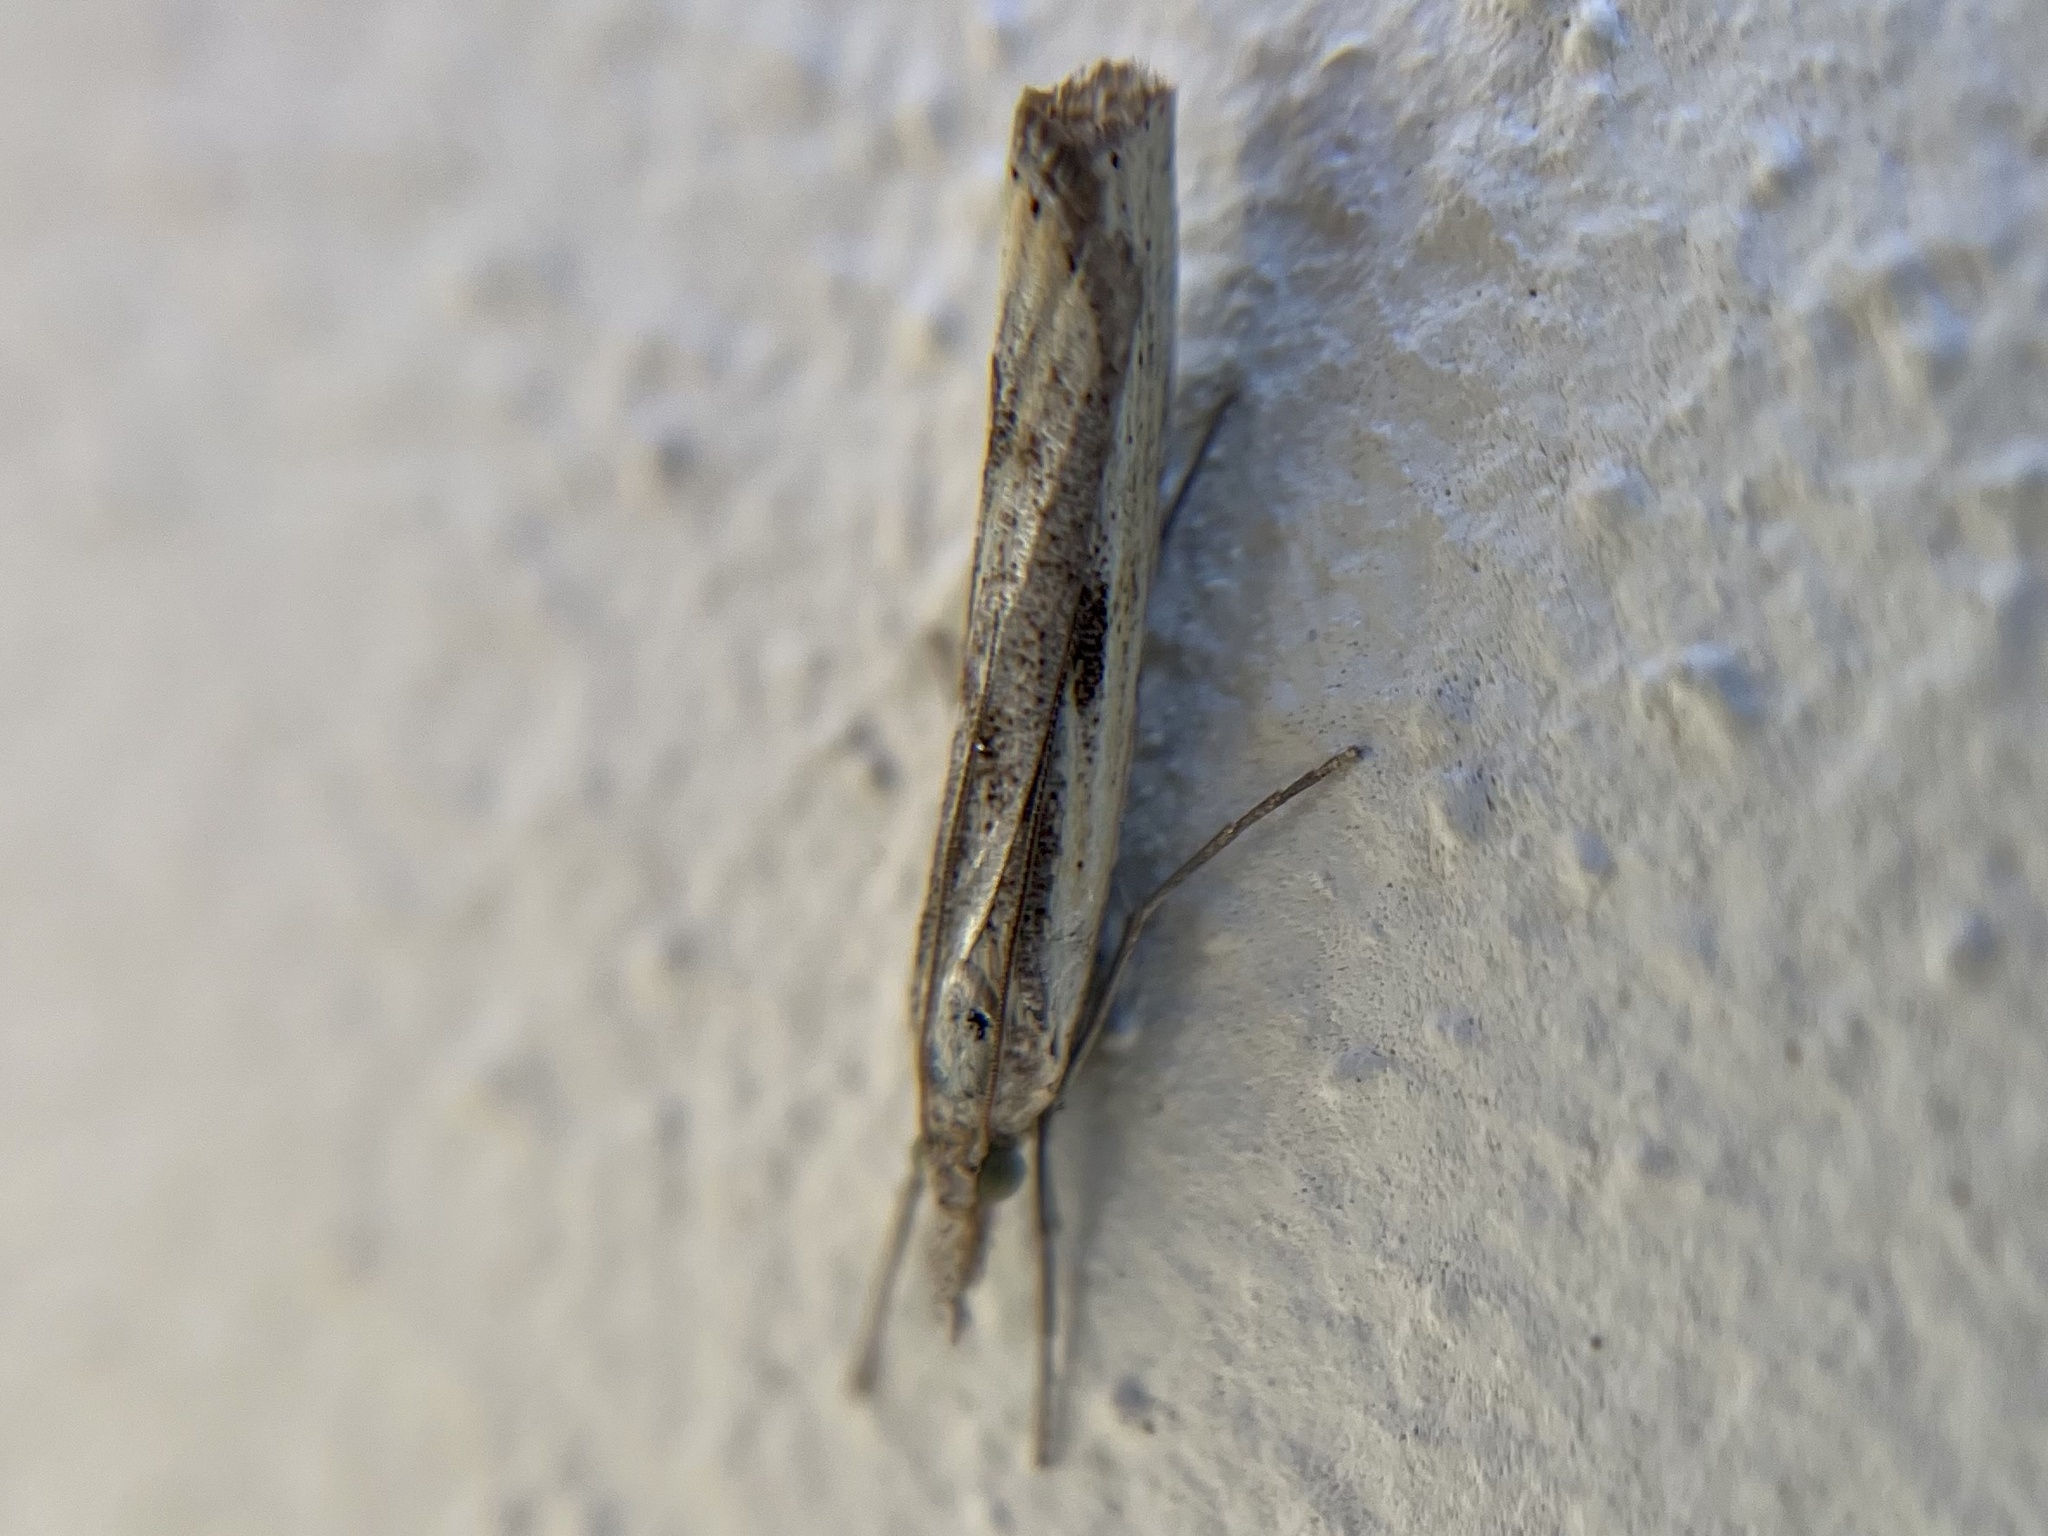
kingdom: Animalia
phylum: Arthropoda
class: Insecta
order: Lepidoptera
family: Crambidae
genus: Agriphila
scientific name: Agriphila inquinatella
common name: Barred grass-veneer
